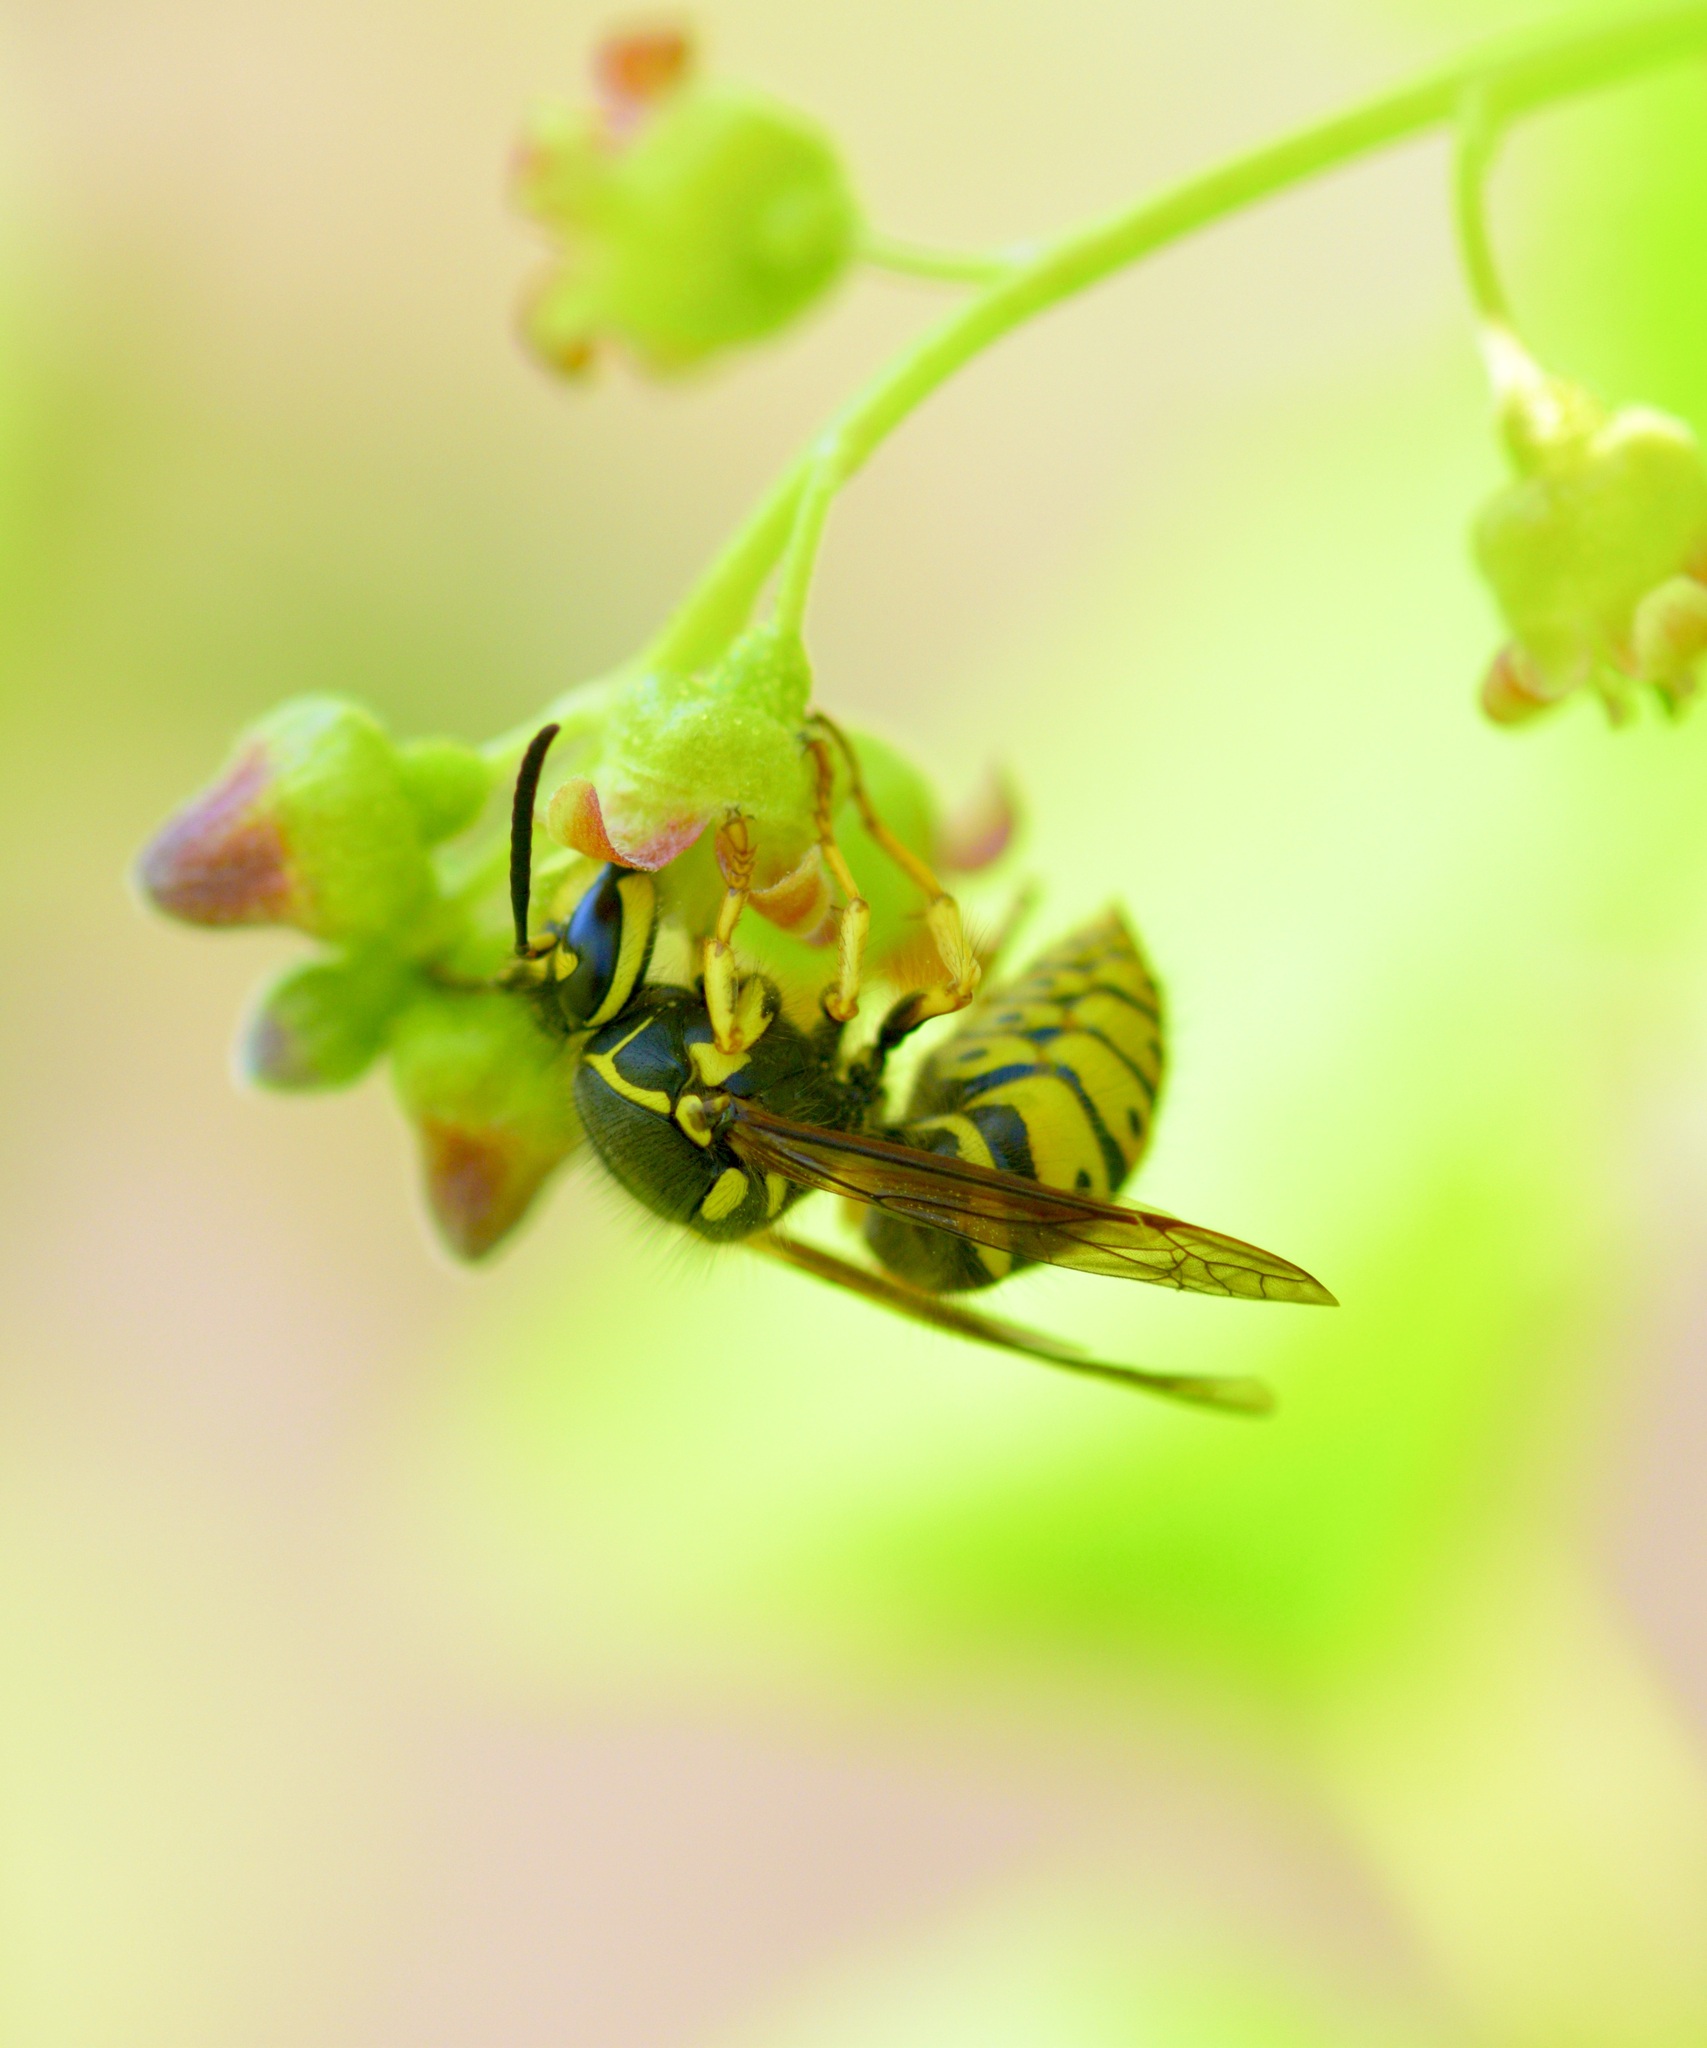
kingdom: Animalia
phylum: Arthropoda
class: Insecta
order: Hymenoptera
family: Vespidae
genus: Dolichovespula
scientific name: Dolichovespula arenaria
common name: Aerial yellowjacket
